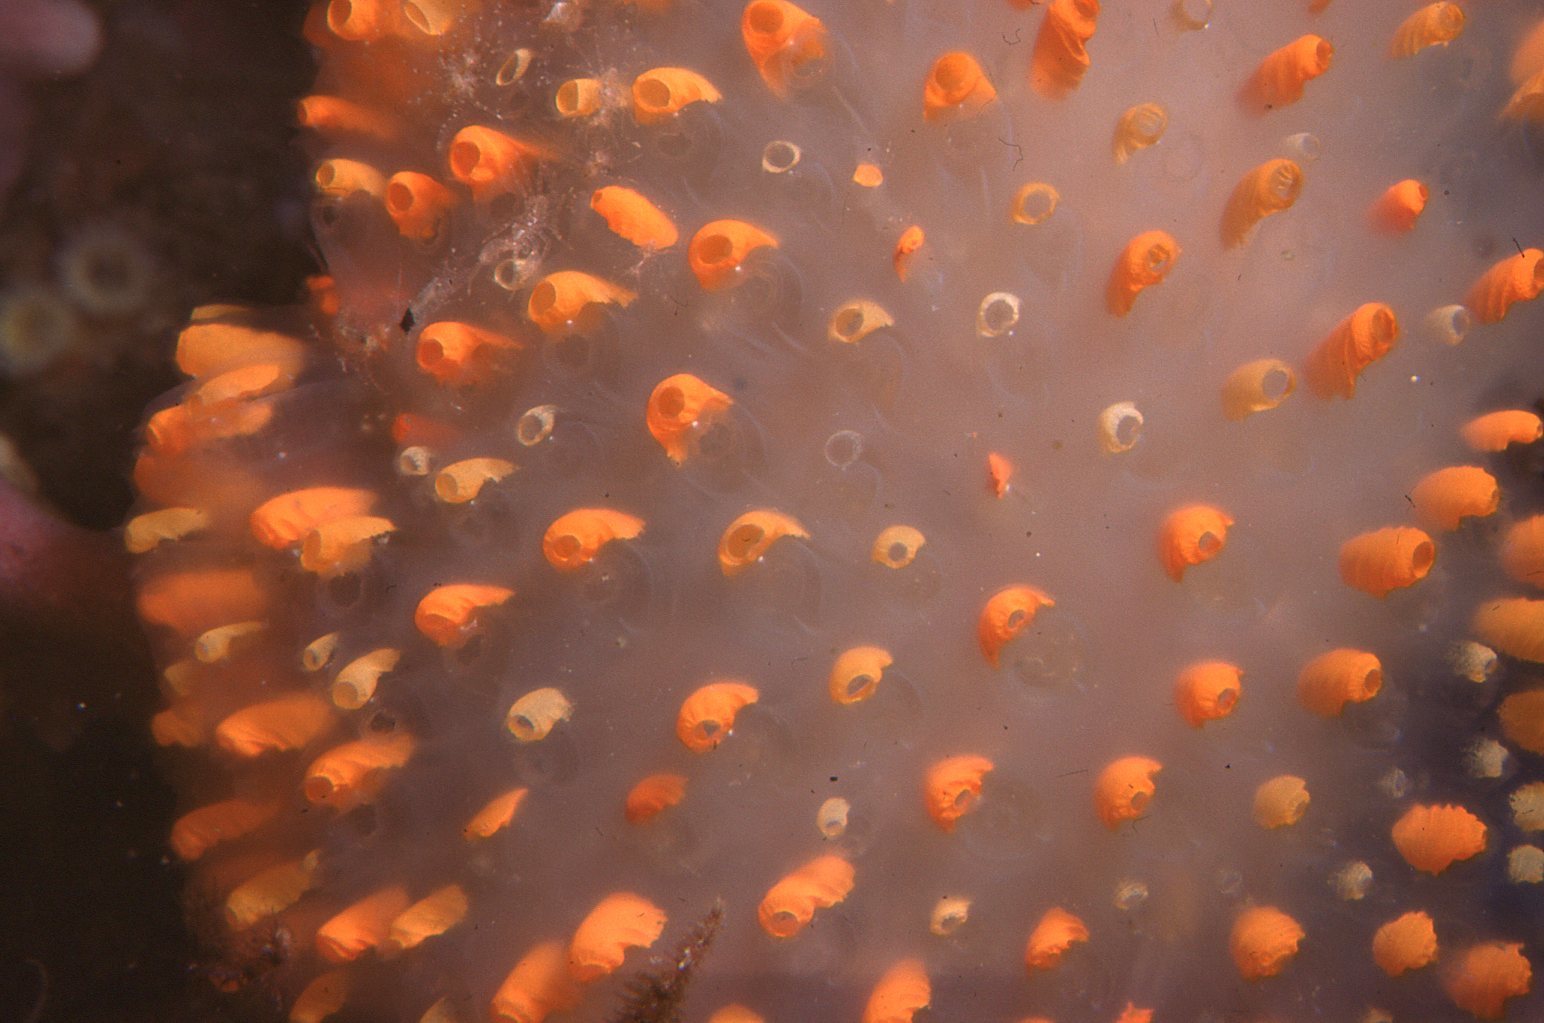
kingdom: Animalia
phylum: Chordata
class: Ascidiacea
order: Aplousobranchia
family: Polycitoridae
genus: Polycitor
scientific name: Polycitor giganteus
